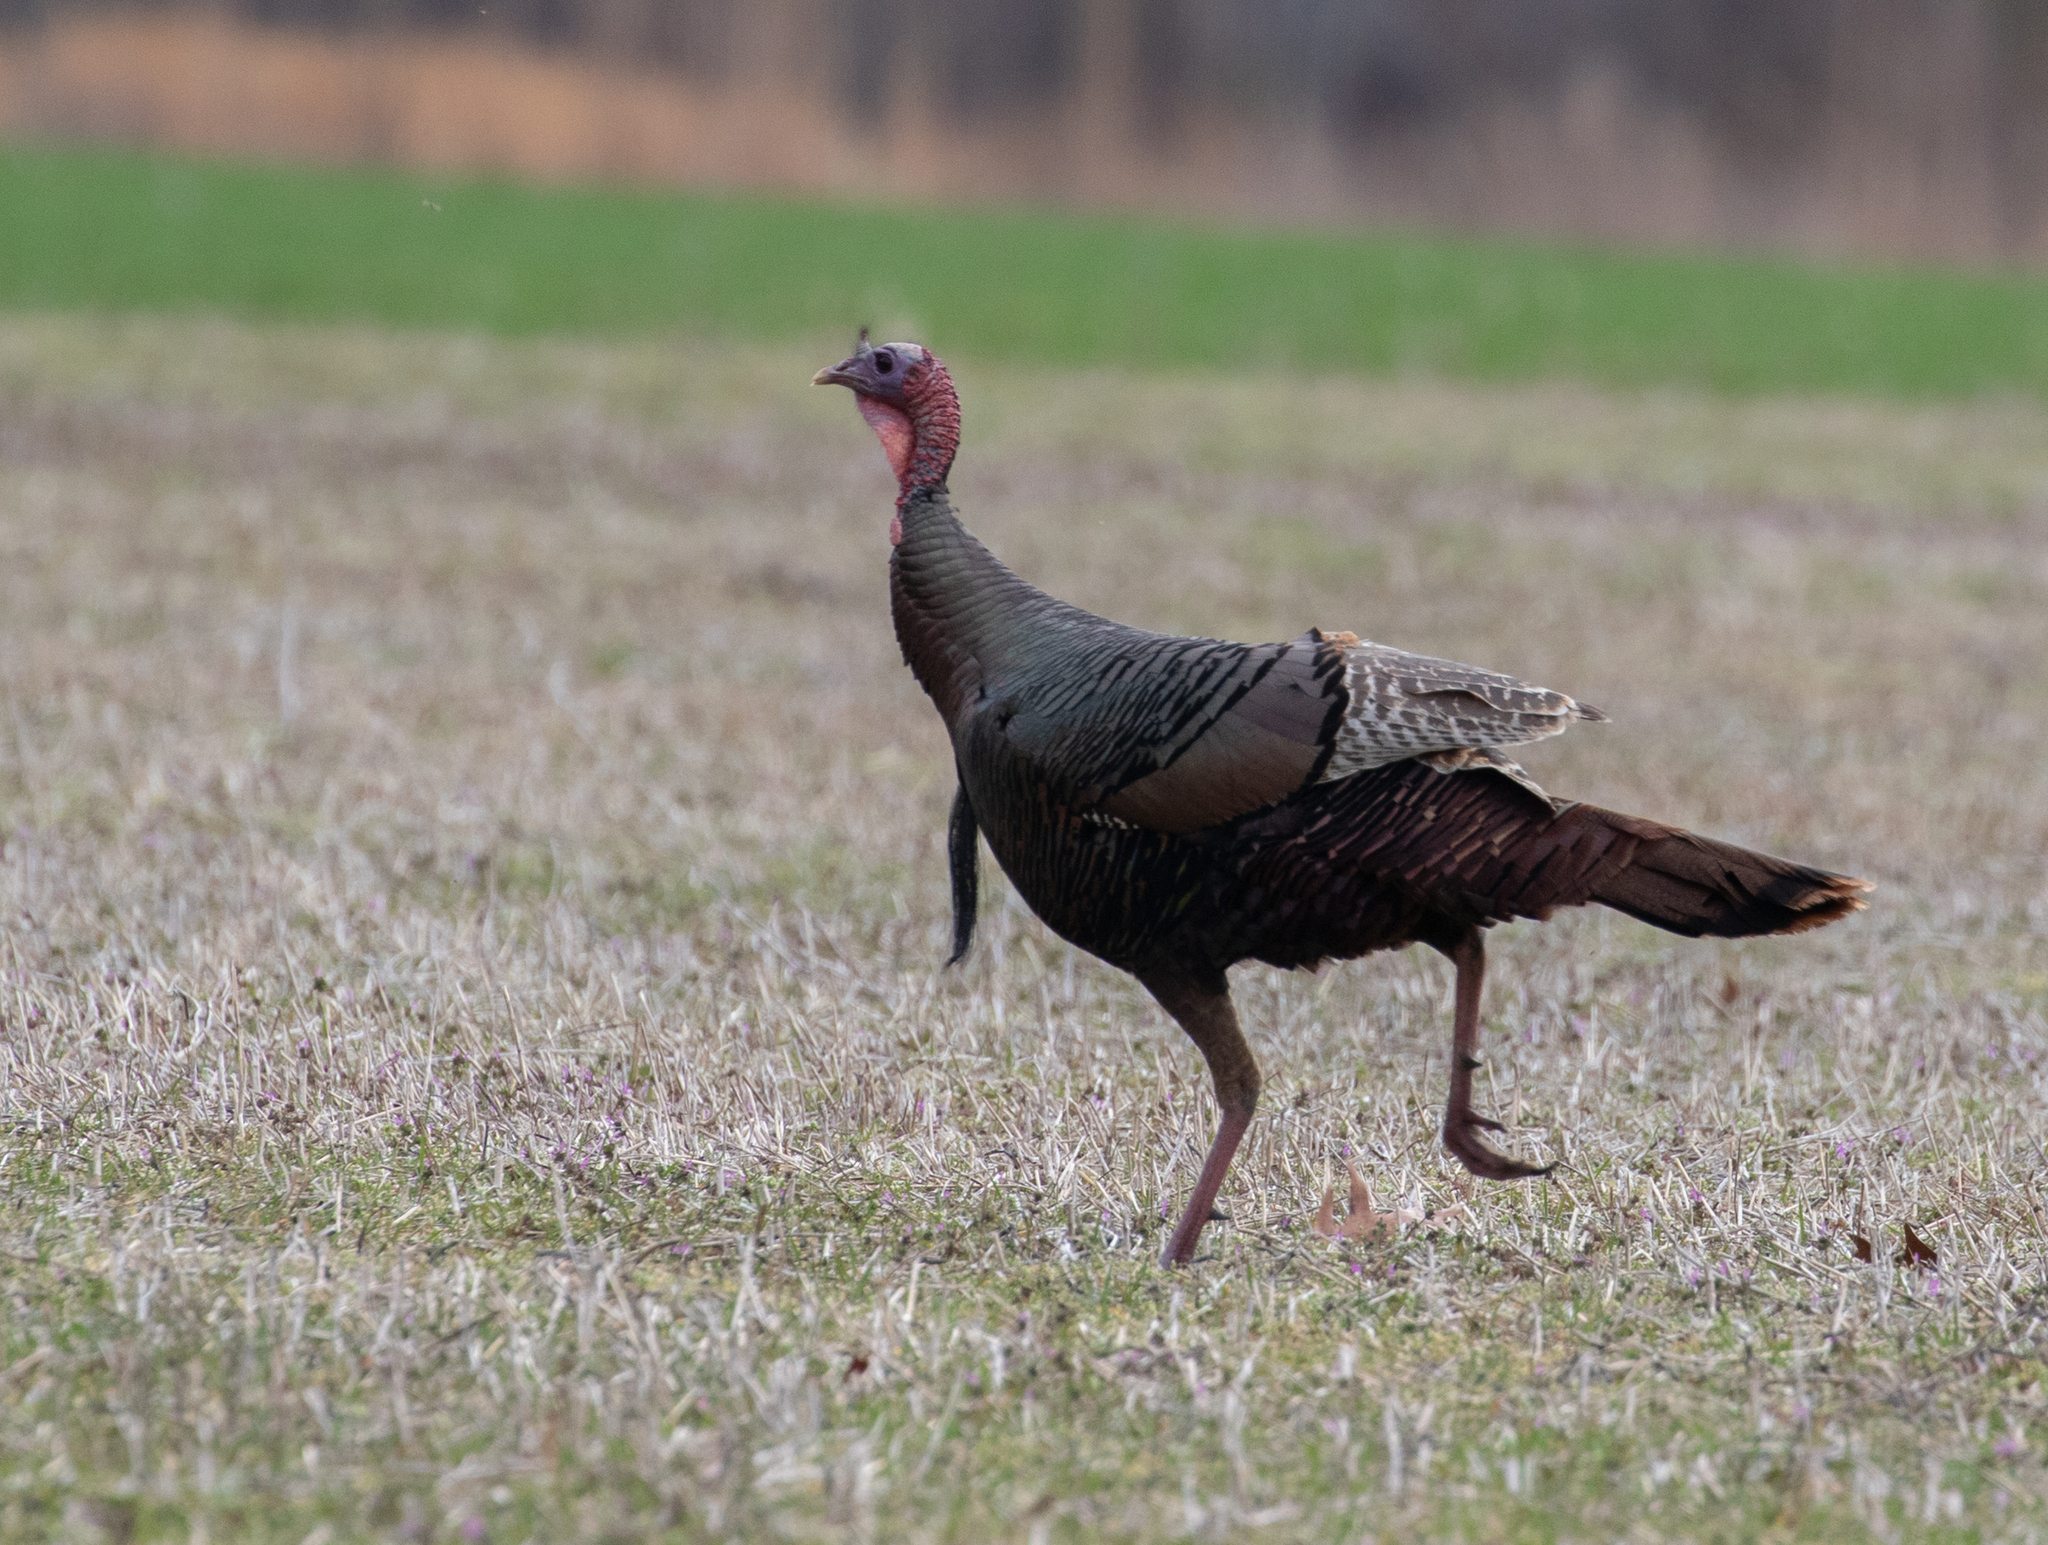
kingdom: Animalia
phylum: Chordata
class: Aves
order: Galliformes
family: Phasianidae
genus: Meleagris
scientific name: Meleagris gallopavo
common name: Wild turkey
